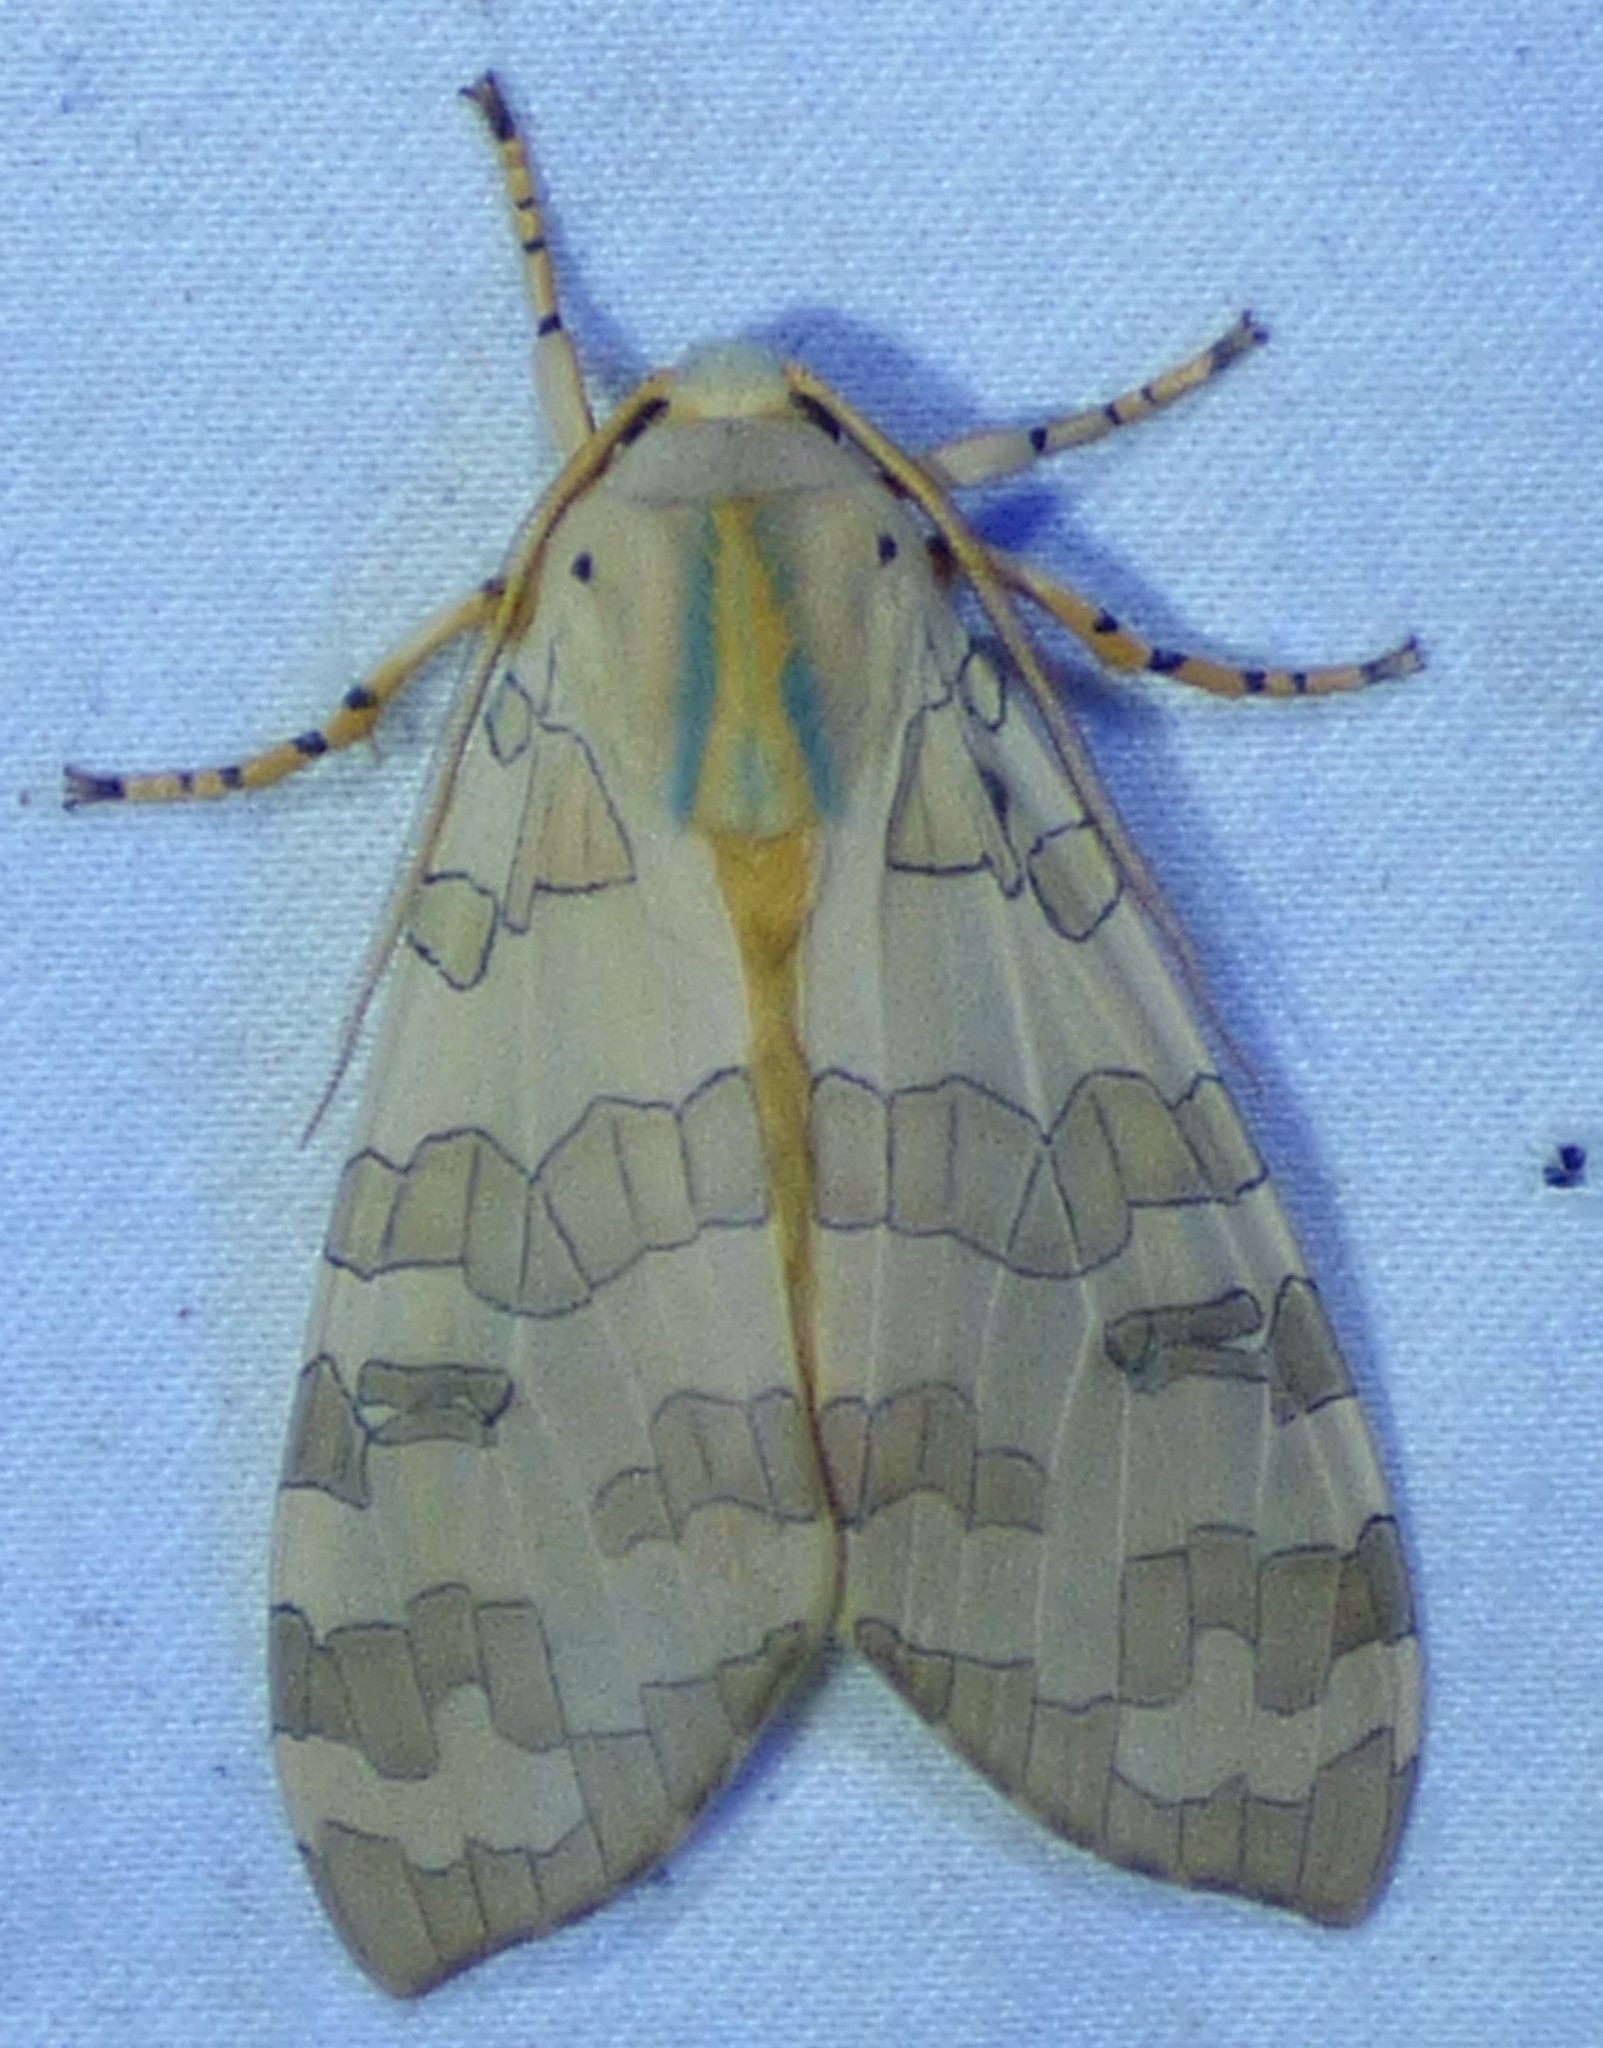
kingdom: Animalia
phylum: Arthropoda
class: Insecta
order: Lepidoptera
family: Erebidae
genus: Halysidota
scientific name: Halysidota
